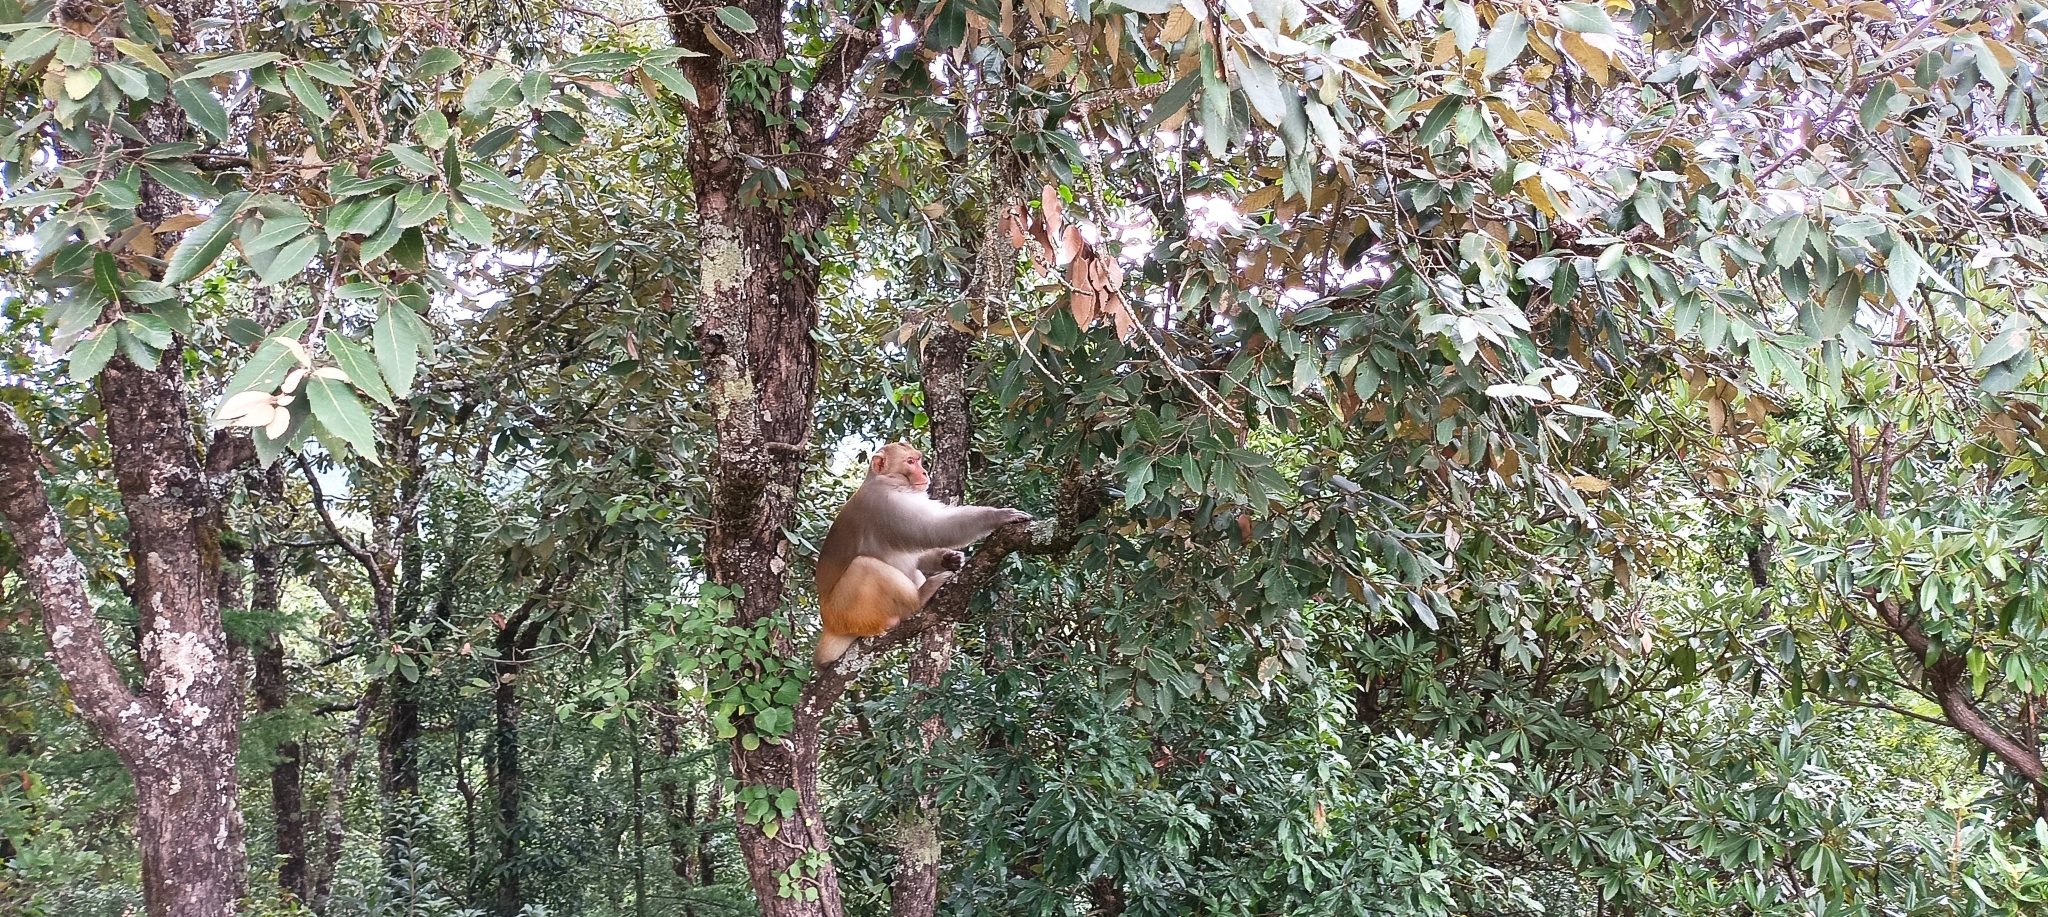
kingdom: Animalia
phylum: Chordata
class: Mammalia
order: Primates
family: Cercopithecidae
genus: Macaca
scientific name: Macaca mulatta
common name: Rhesus monkey
